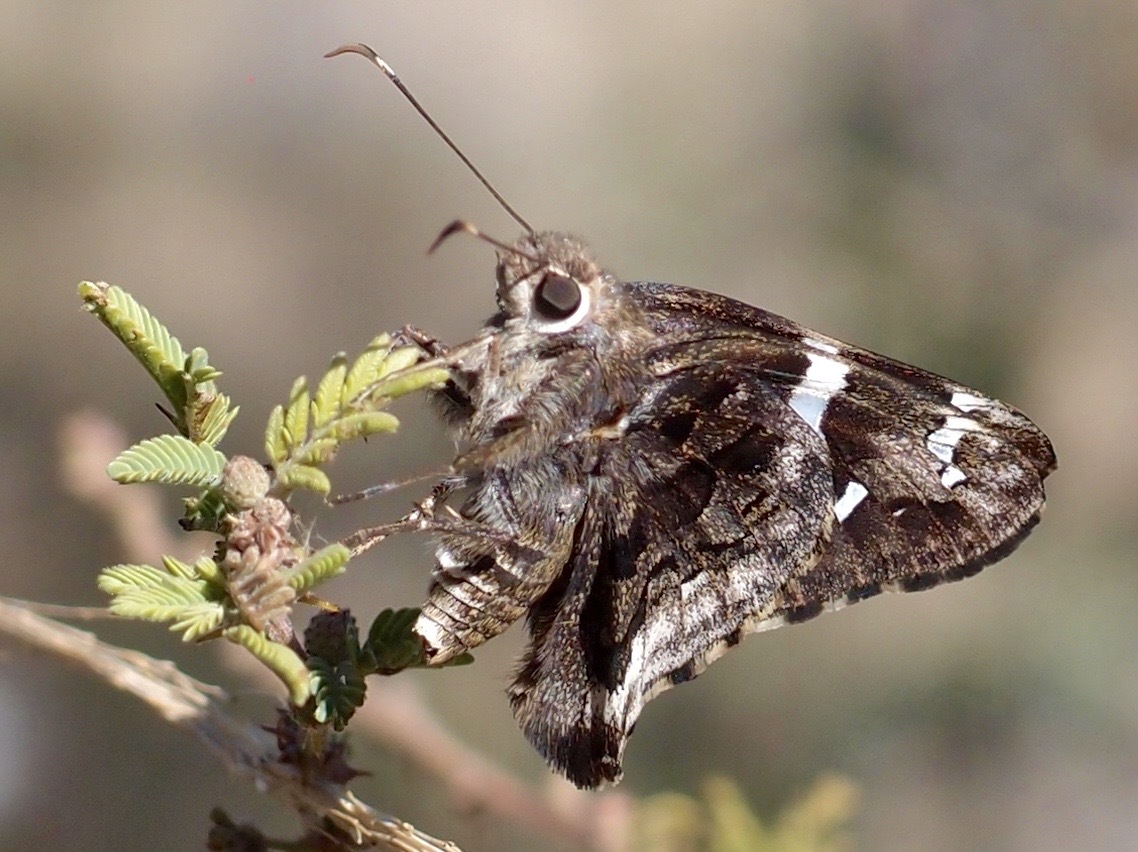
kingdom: Animalia
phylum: Arthropoda
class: Insecta
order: Lepidoptera
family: Hesperiidae
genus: Codatractus
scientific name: Codatractus arizonensis
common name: Arizona skipper
